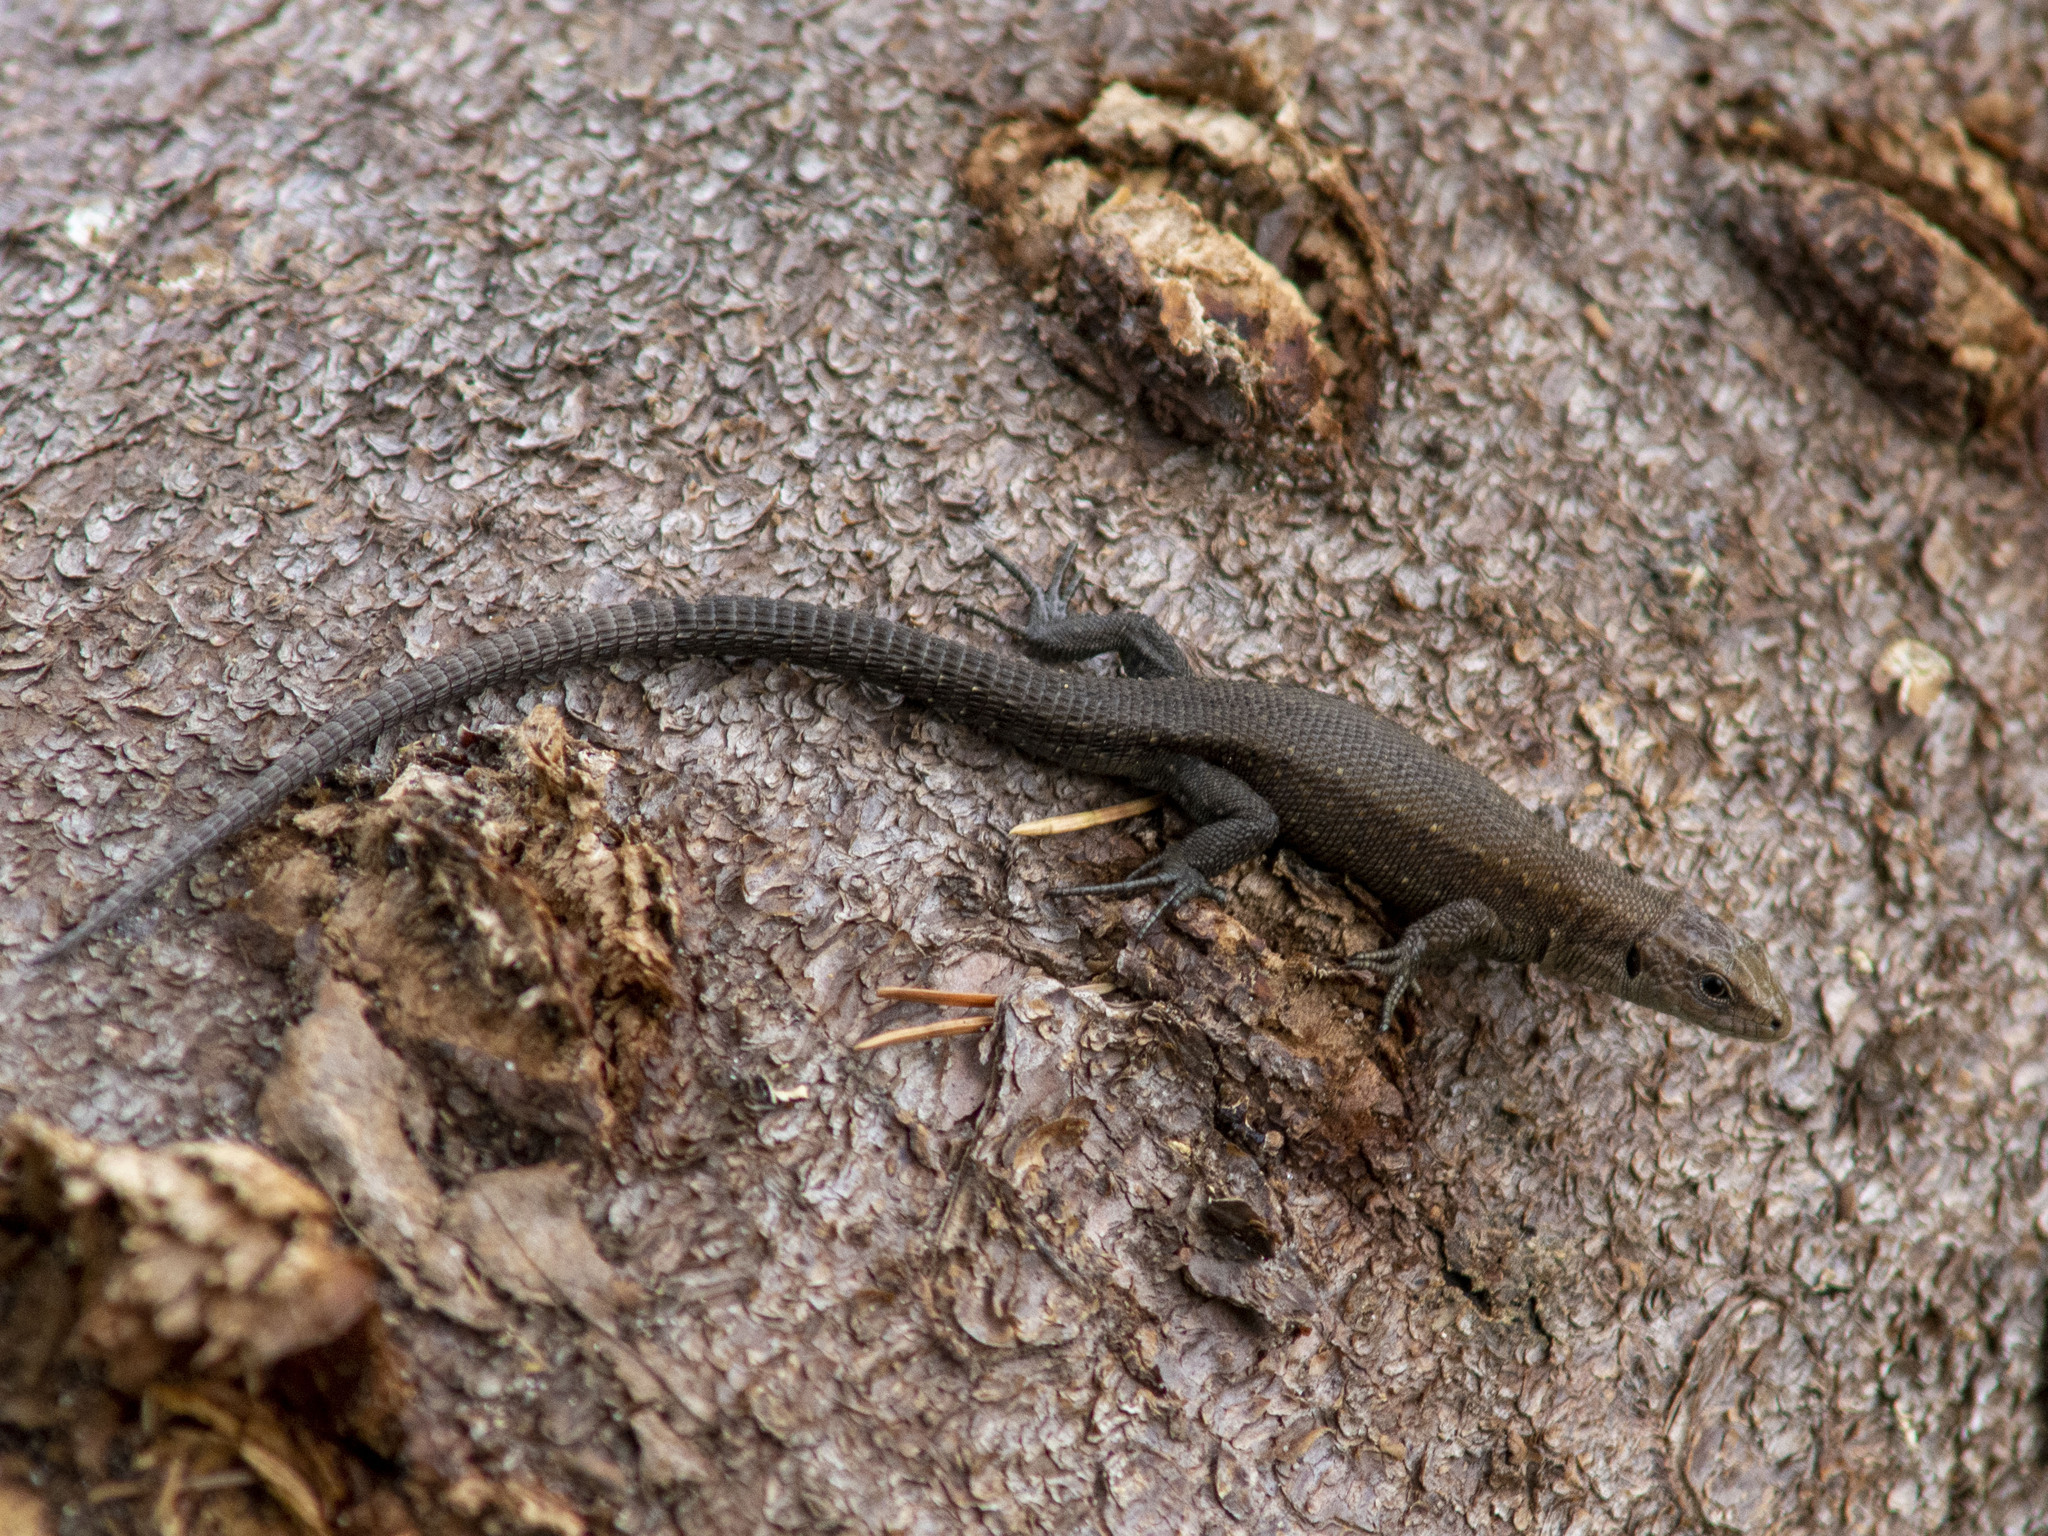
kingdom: Animalia
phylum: Chordata
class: Squamata
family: Lacertidae
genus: Zootoca
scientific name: Zootoca vivipara
